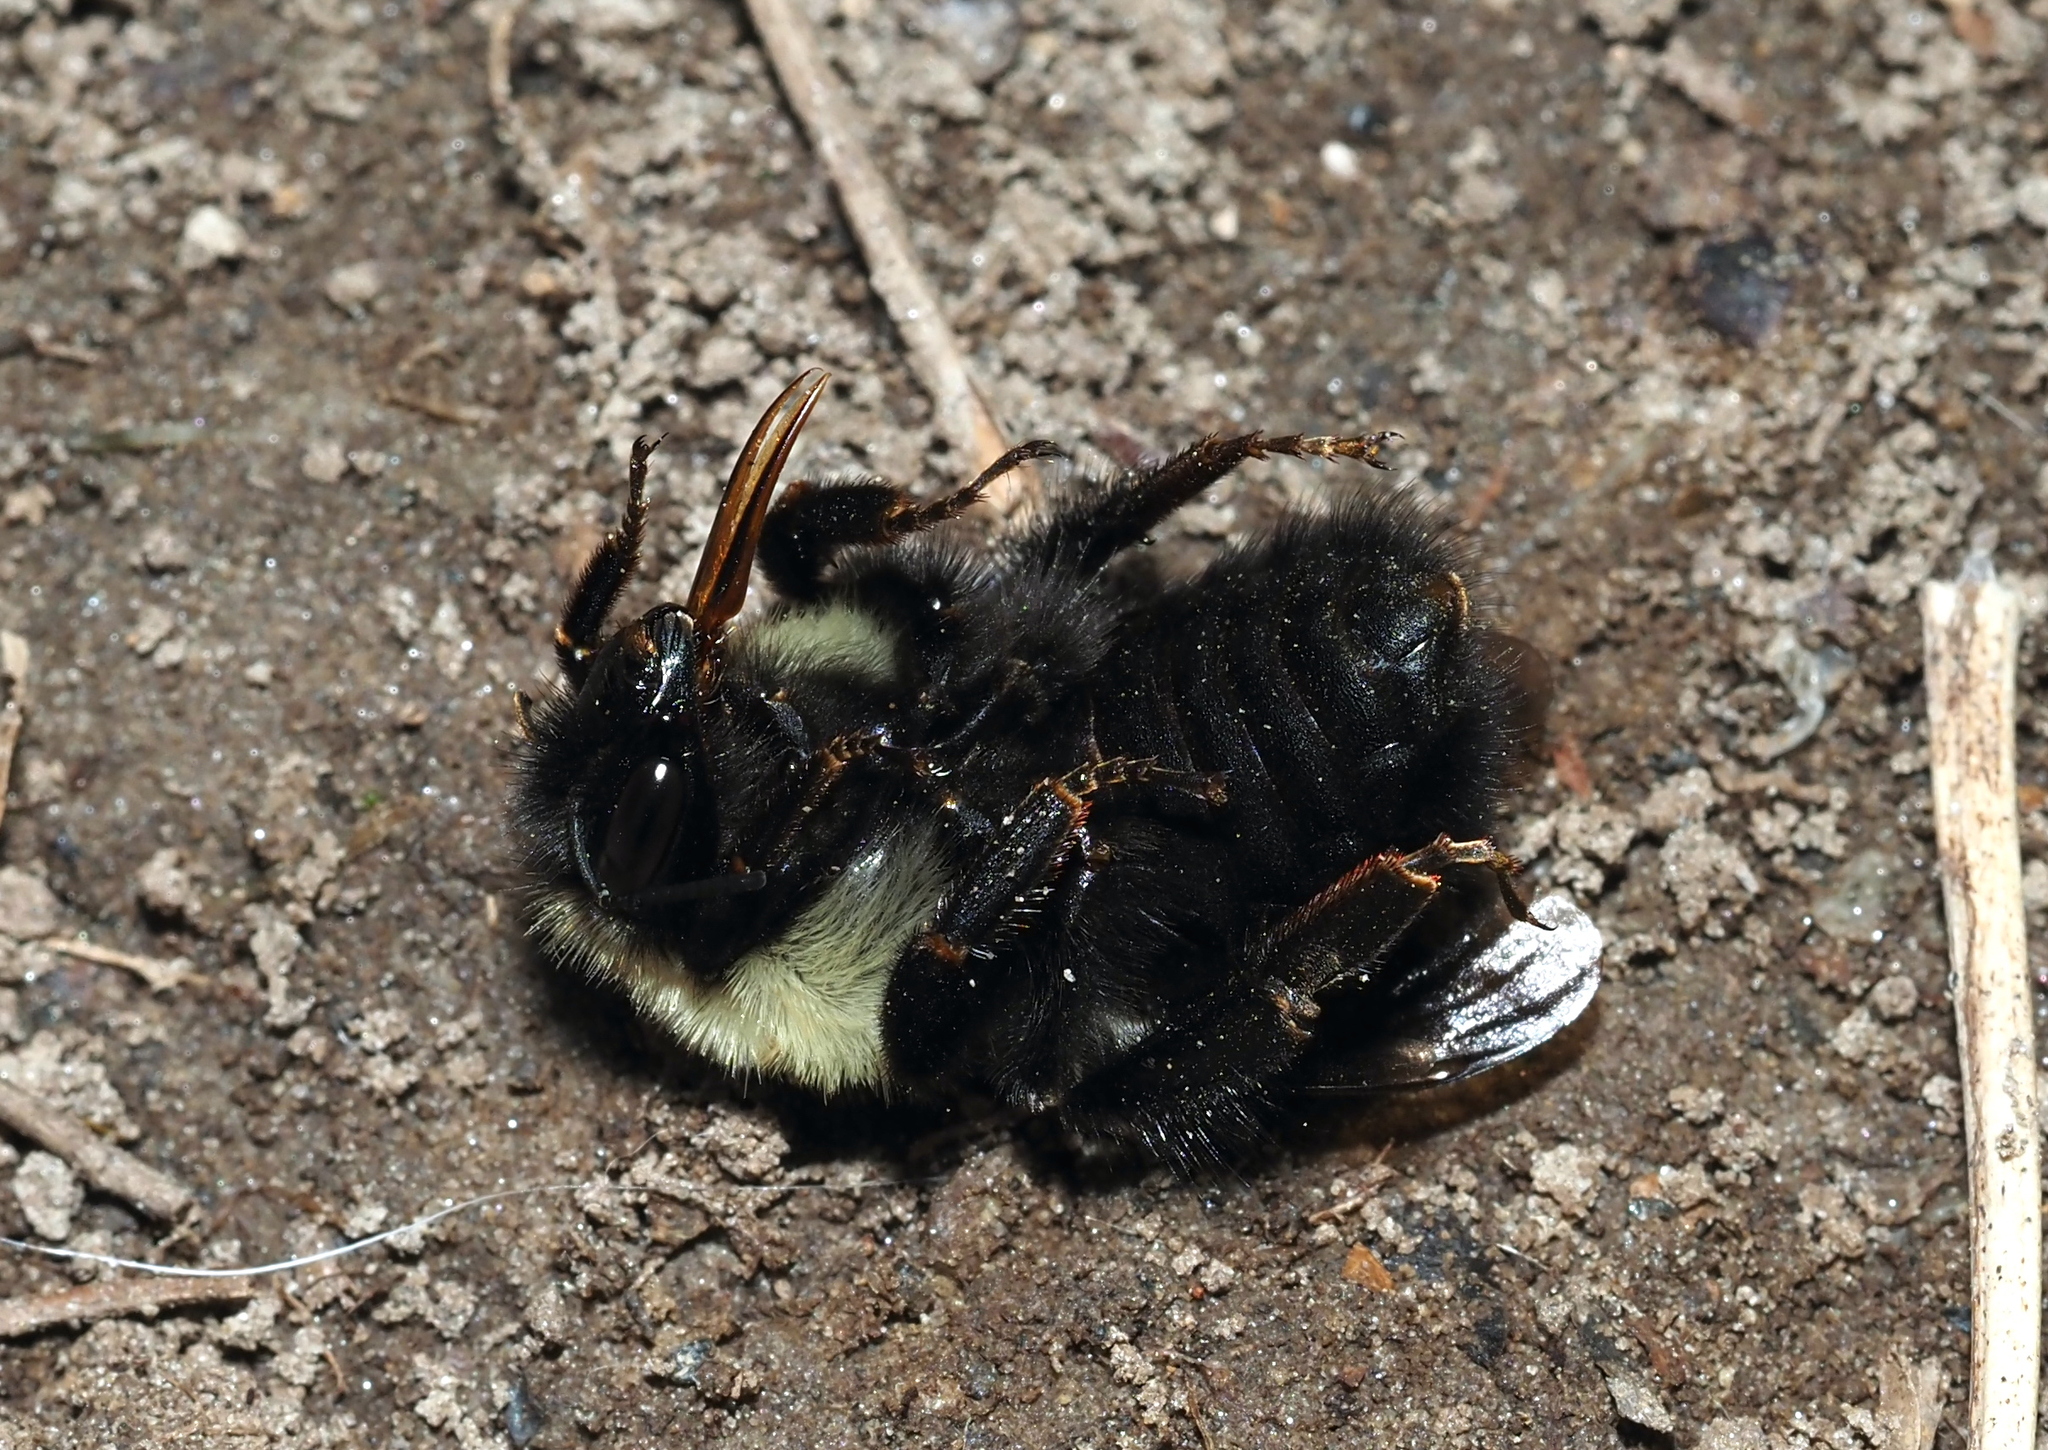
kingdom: Animalia
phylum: Arthropoda
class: Insecta
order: Hymenoptera
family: Apidae
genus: Bombus
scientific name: Bombus bimaculatus
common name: Two-spotted bumble bee
